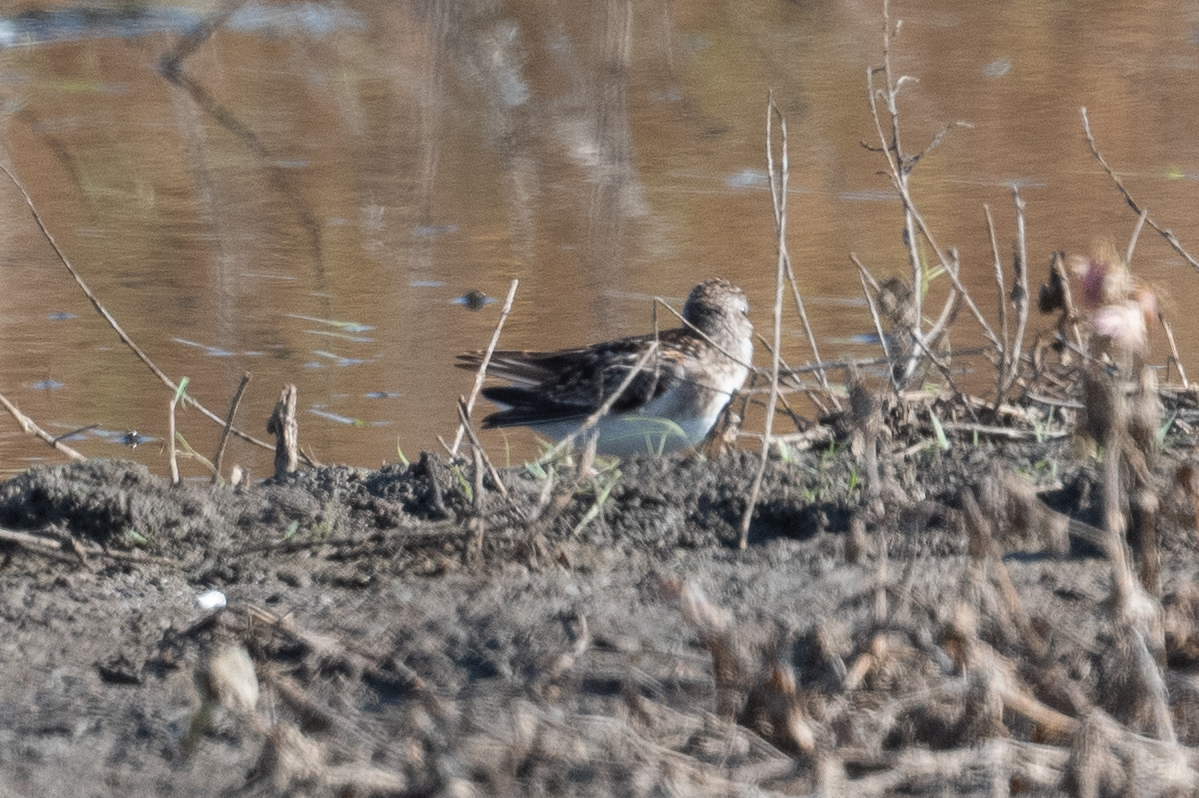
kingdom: Animalia
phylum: Chordata
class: Aves
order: Charadriiformes
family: Scolopacidae
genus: Calidris
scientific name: Calidris minutilla
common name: Least sandpiper
